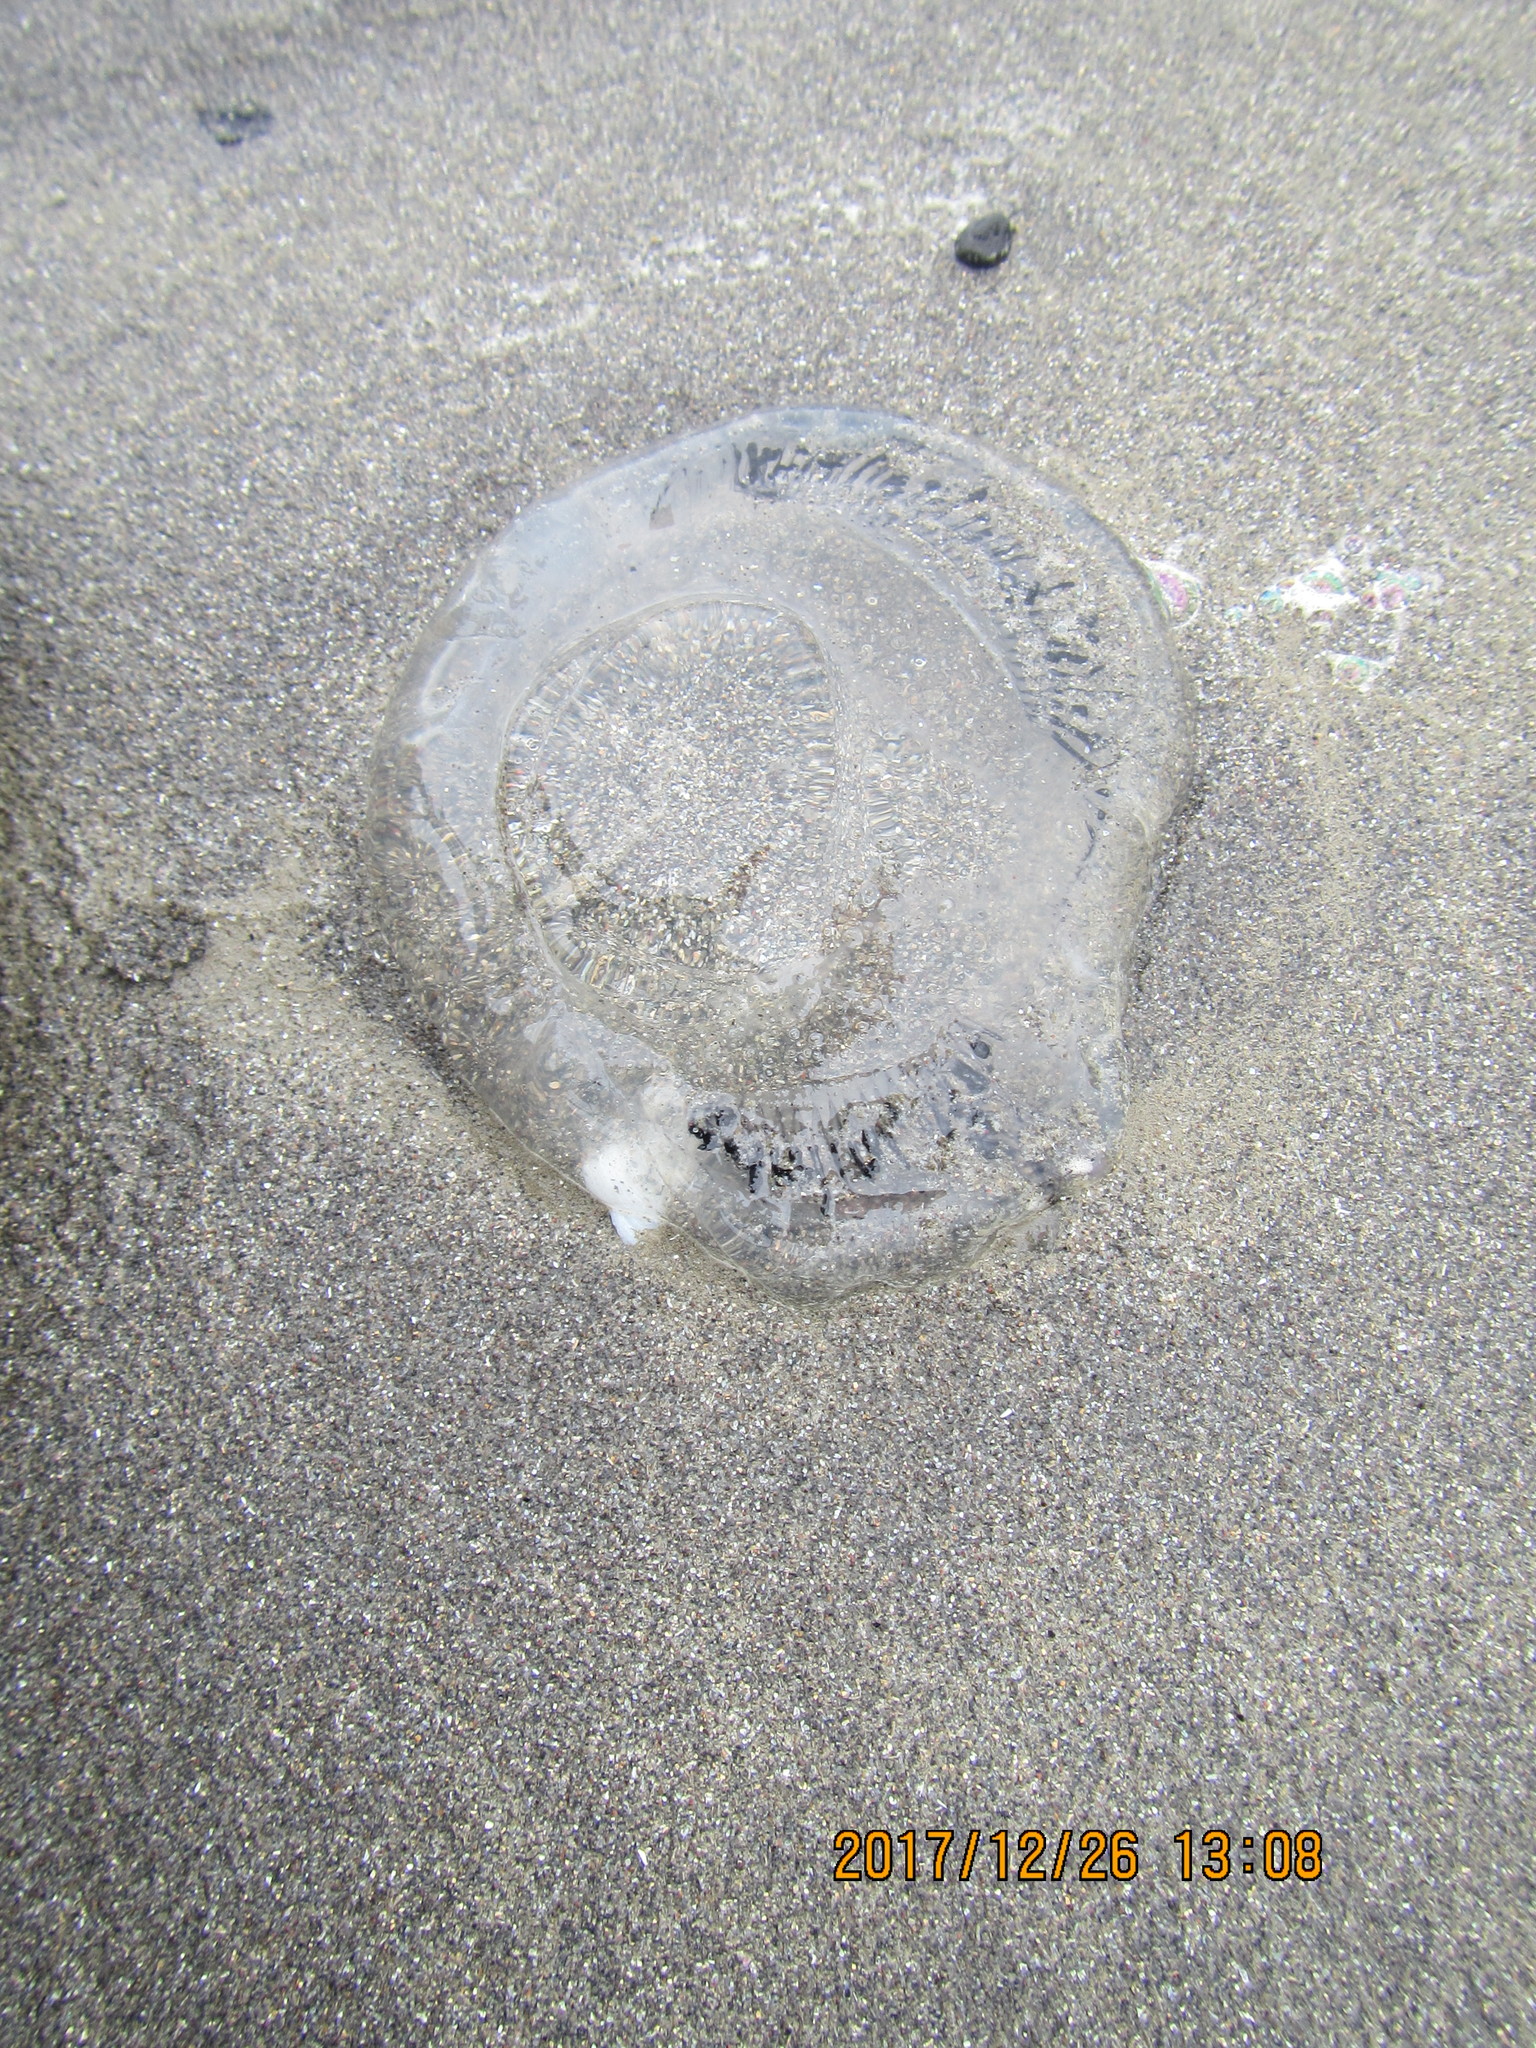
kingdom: Animalia
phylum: Cnidaria
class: Hydrozoa
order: Leptothecata
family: Aequoreidae
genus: Aequorea
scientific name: Aequorea forskalea
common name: Many-ribbed jellyfish
